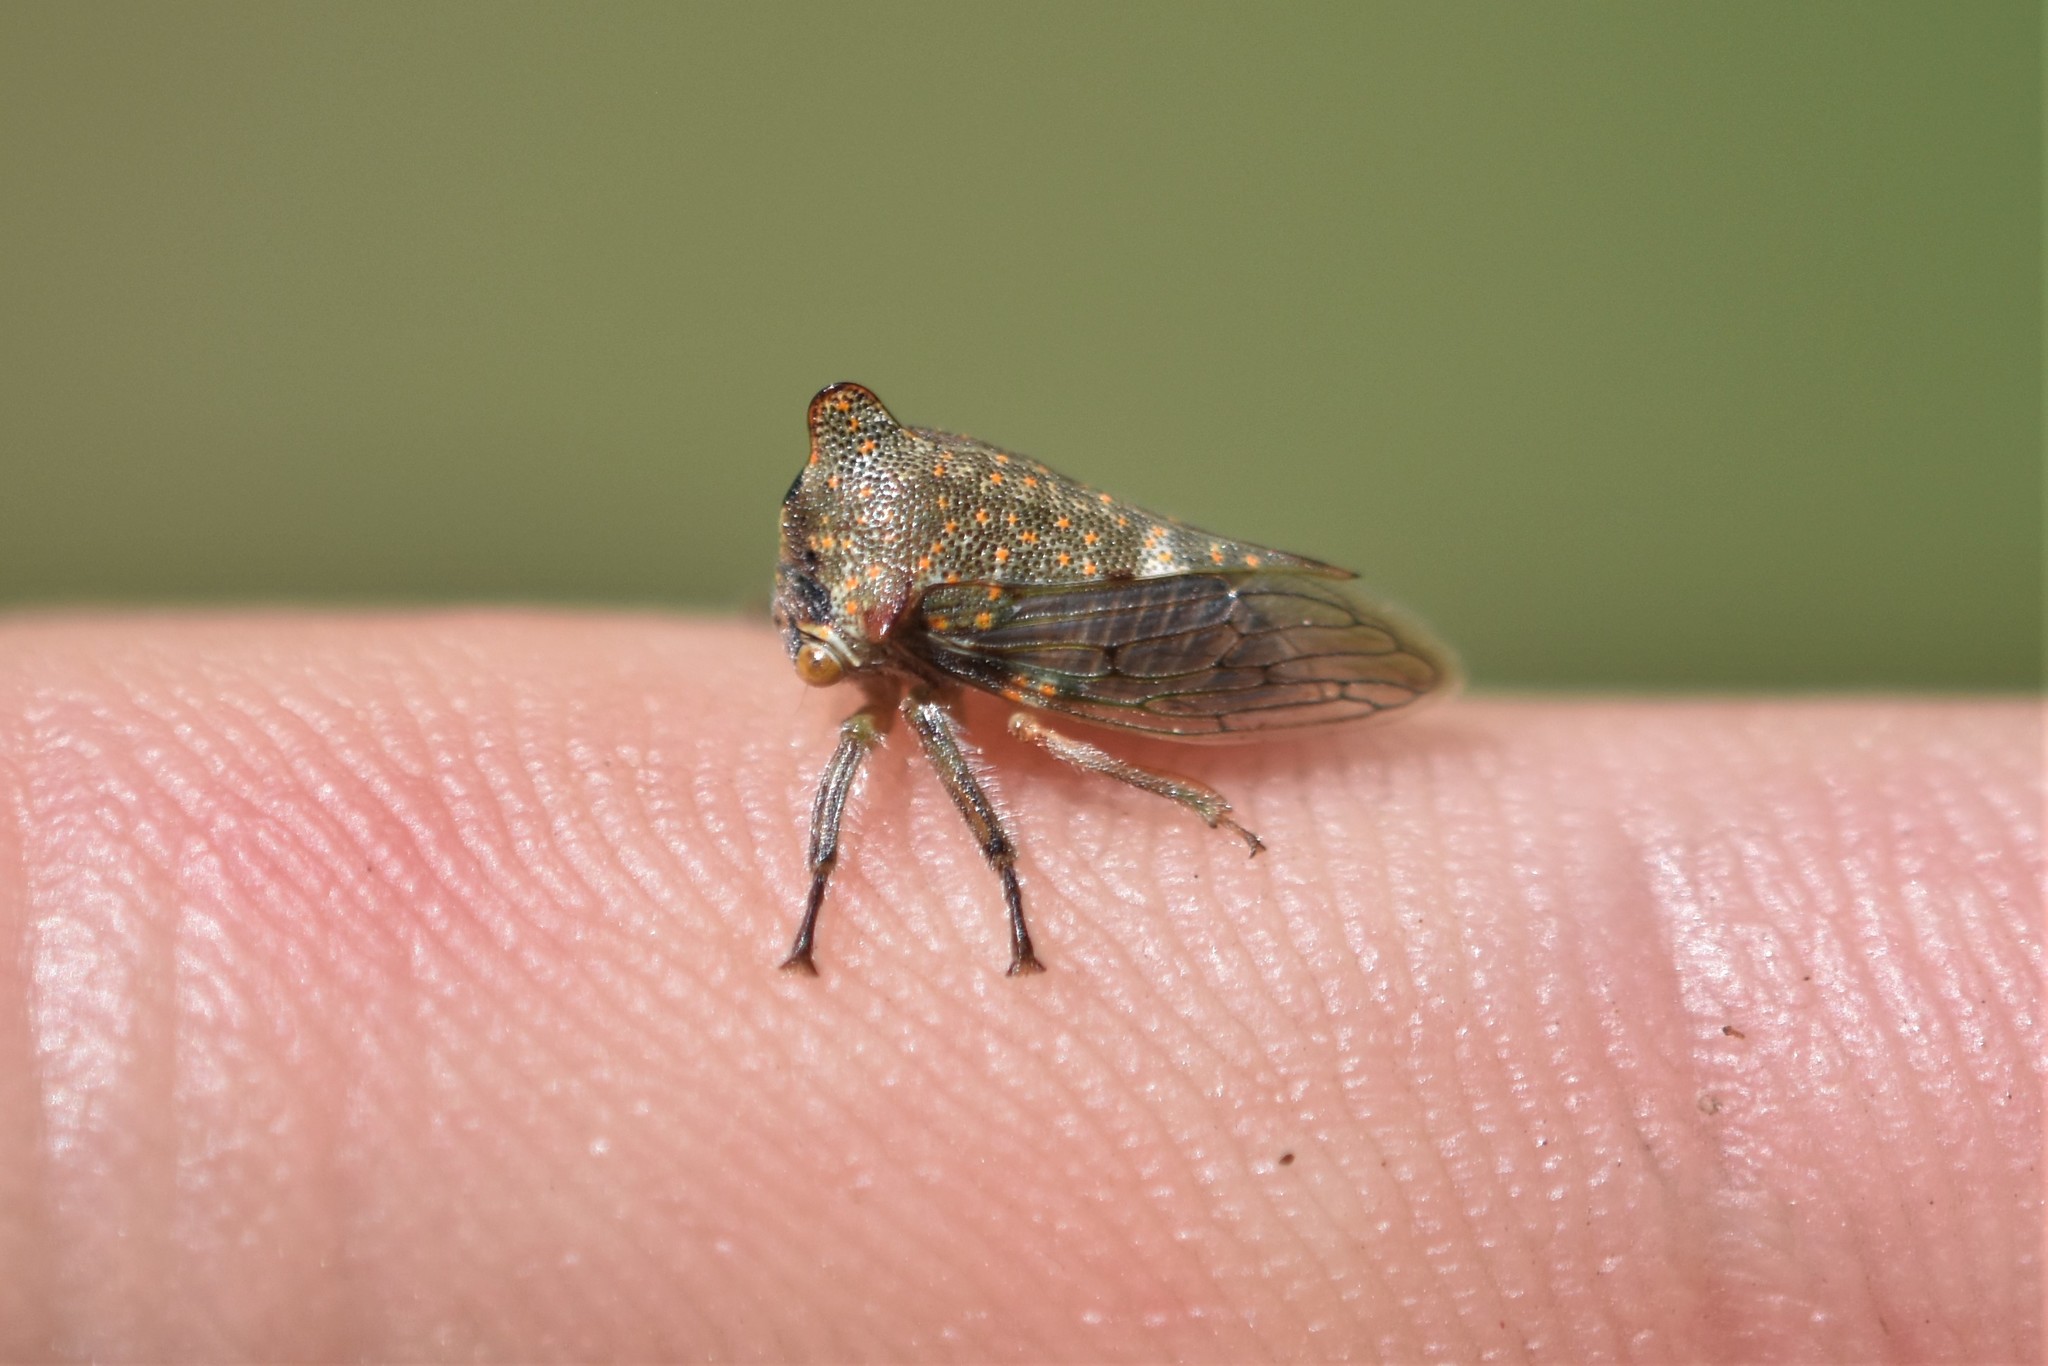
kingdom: Animalia
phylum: Arthropoda
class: Insecta
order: Hemiptera
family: Membracidae
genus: Platycotis
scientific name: Platycotis vittatus
